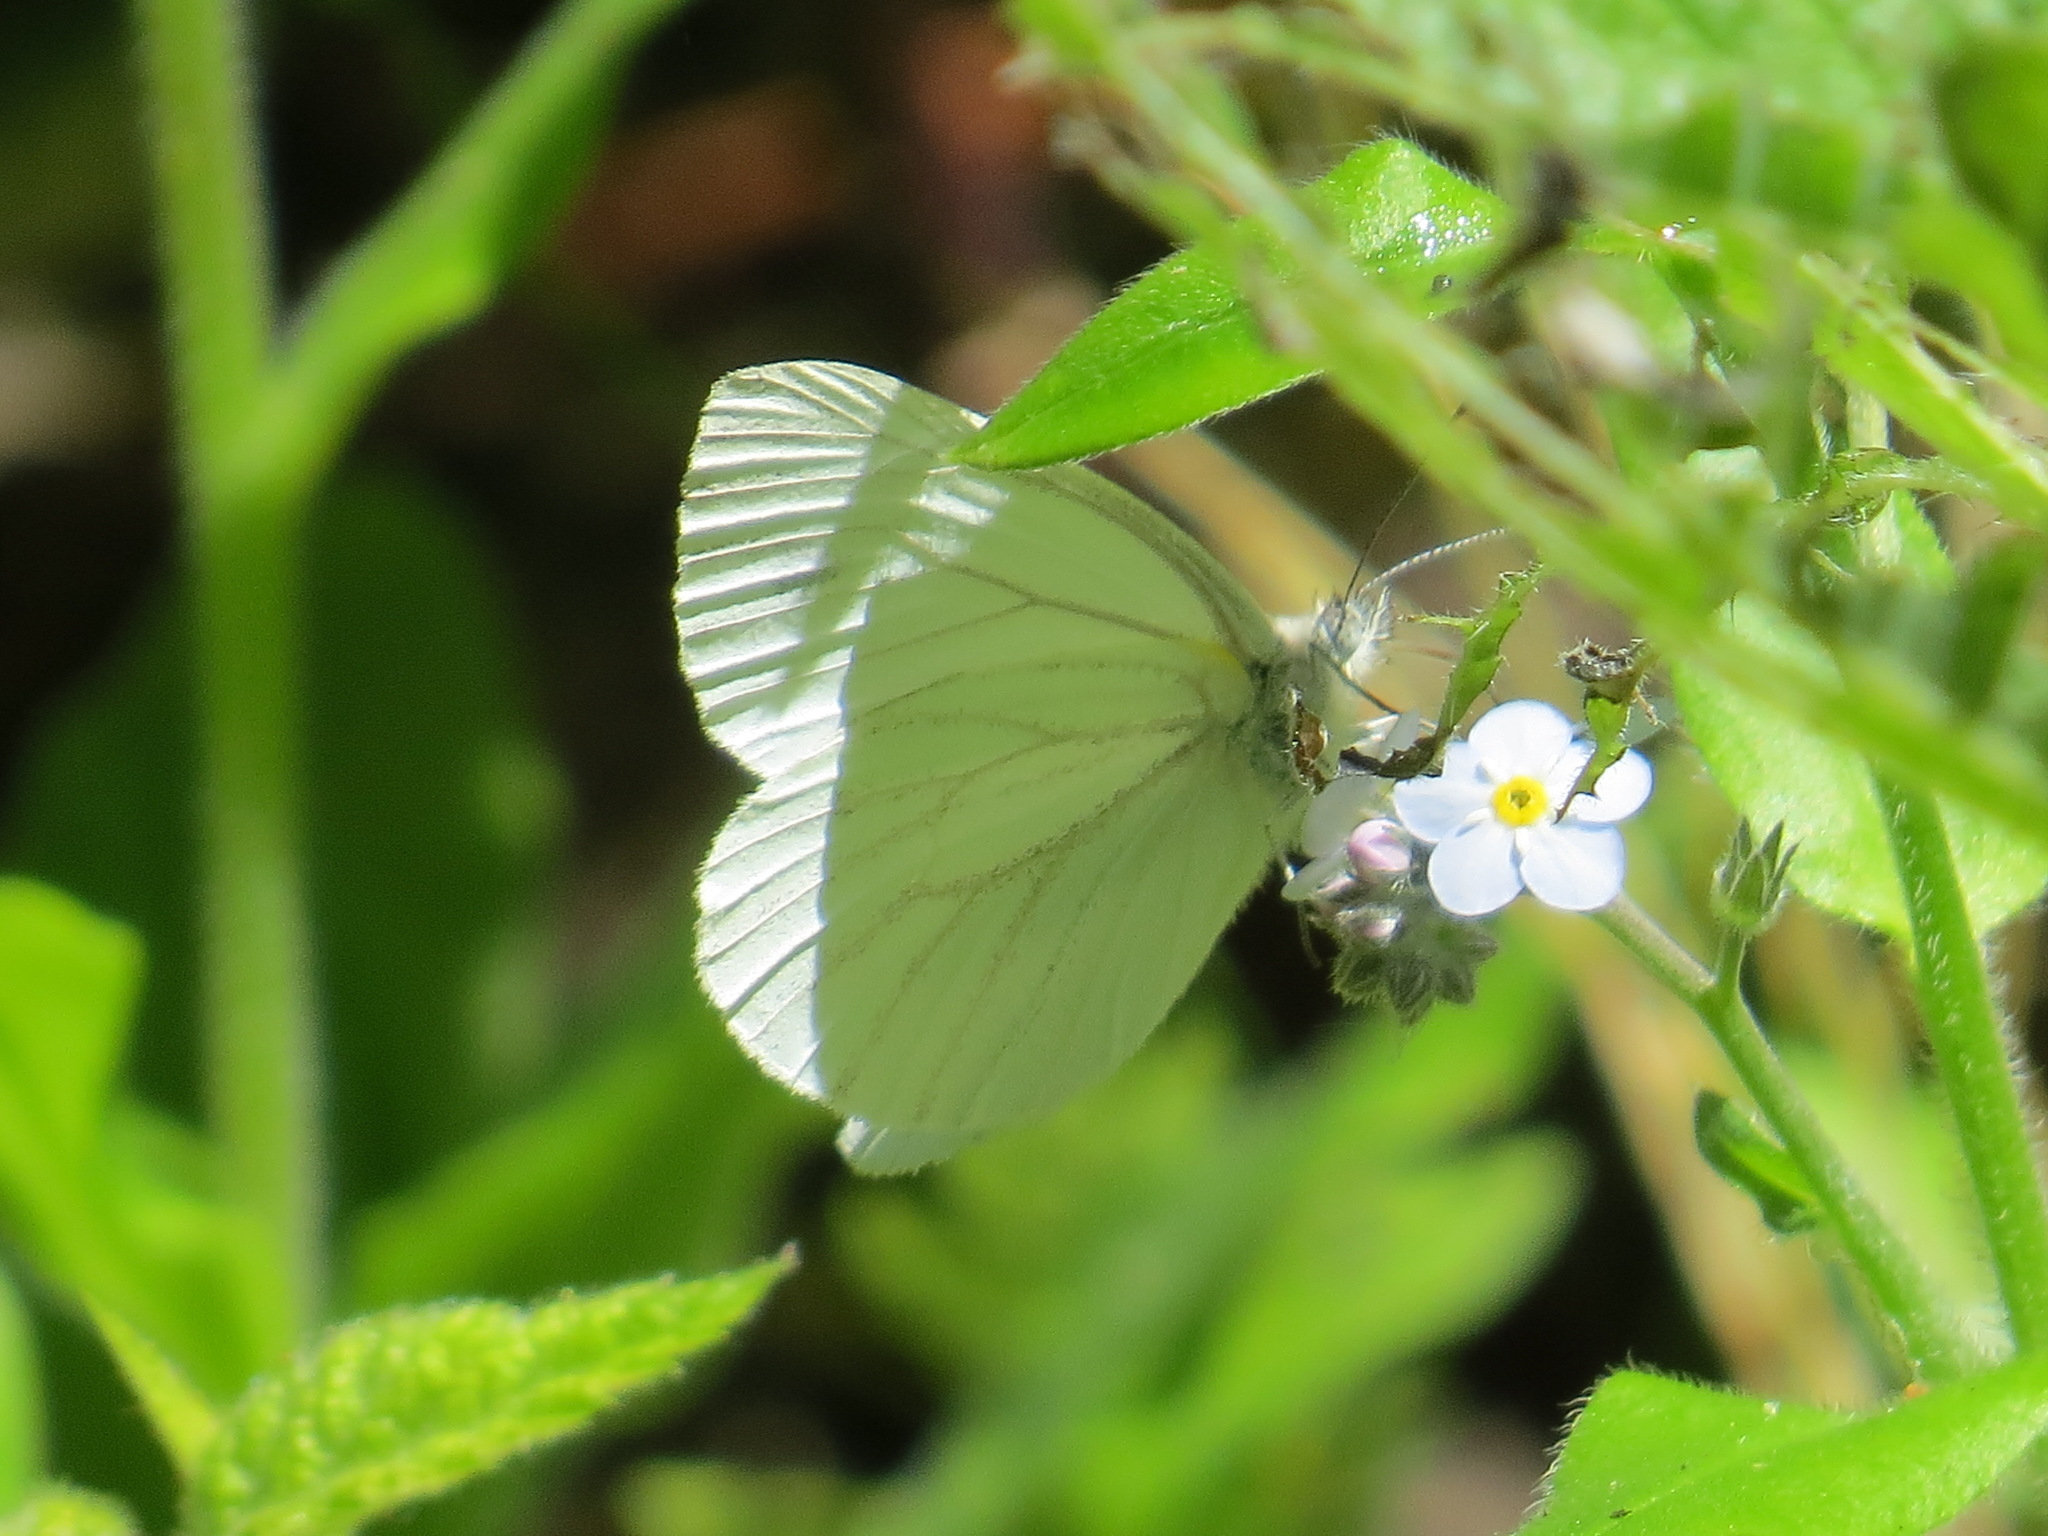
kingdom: Animalia
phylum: Arthropoda
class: Insecta
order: Lepidoptera
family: Pieridae
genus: Pieris
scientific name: Pieris marginalis
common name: Margined white
